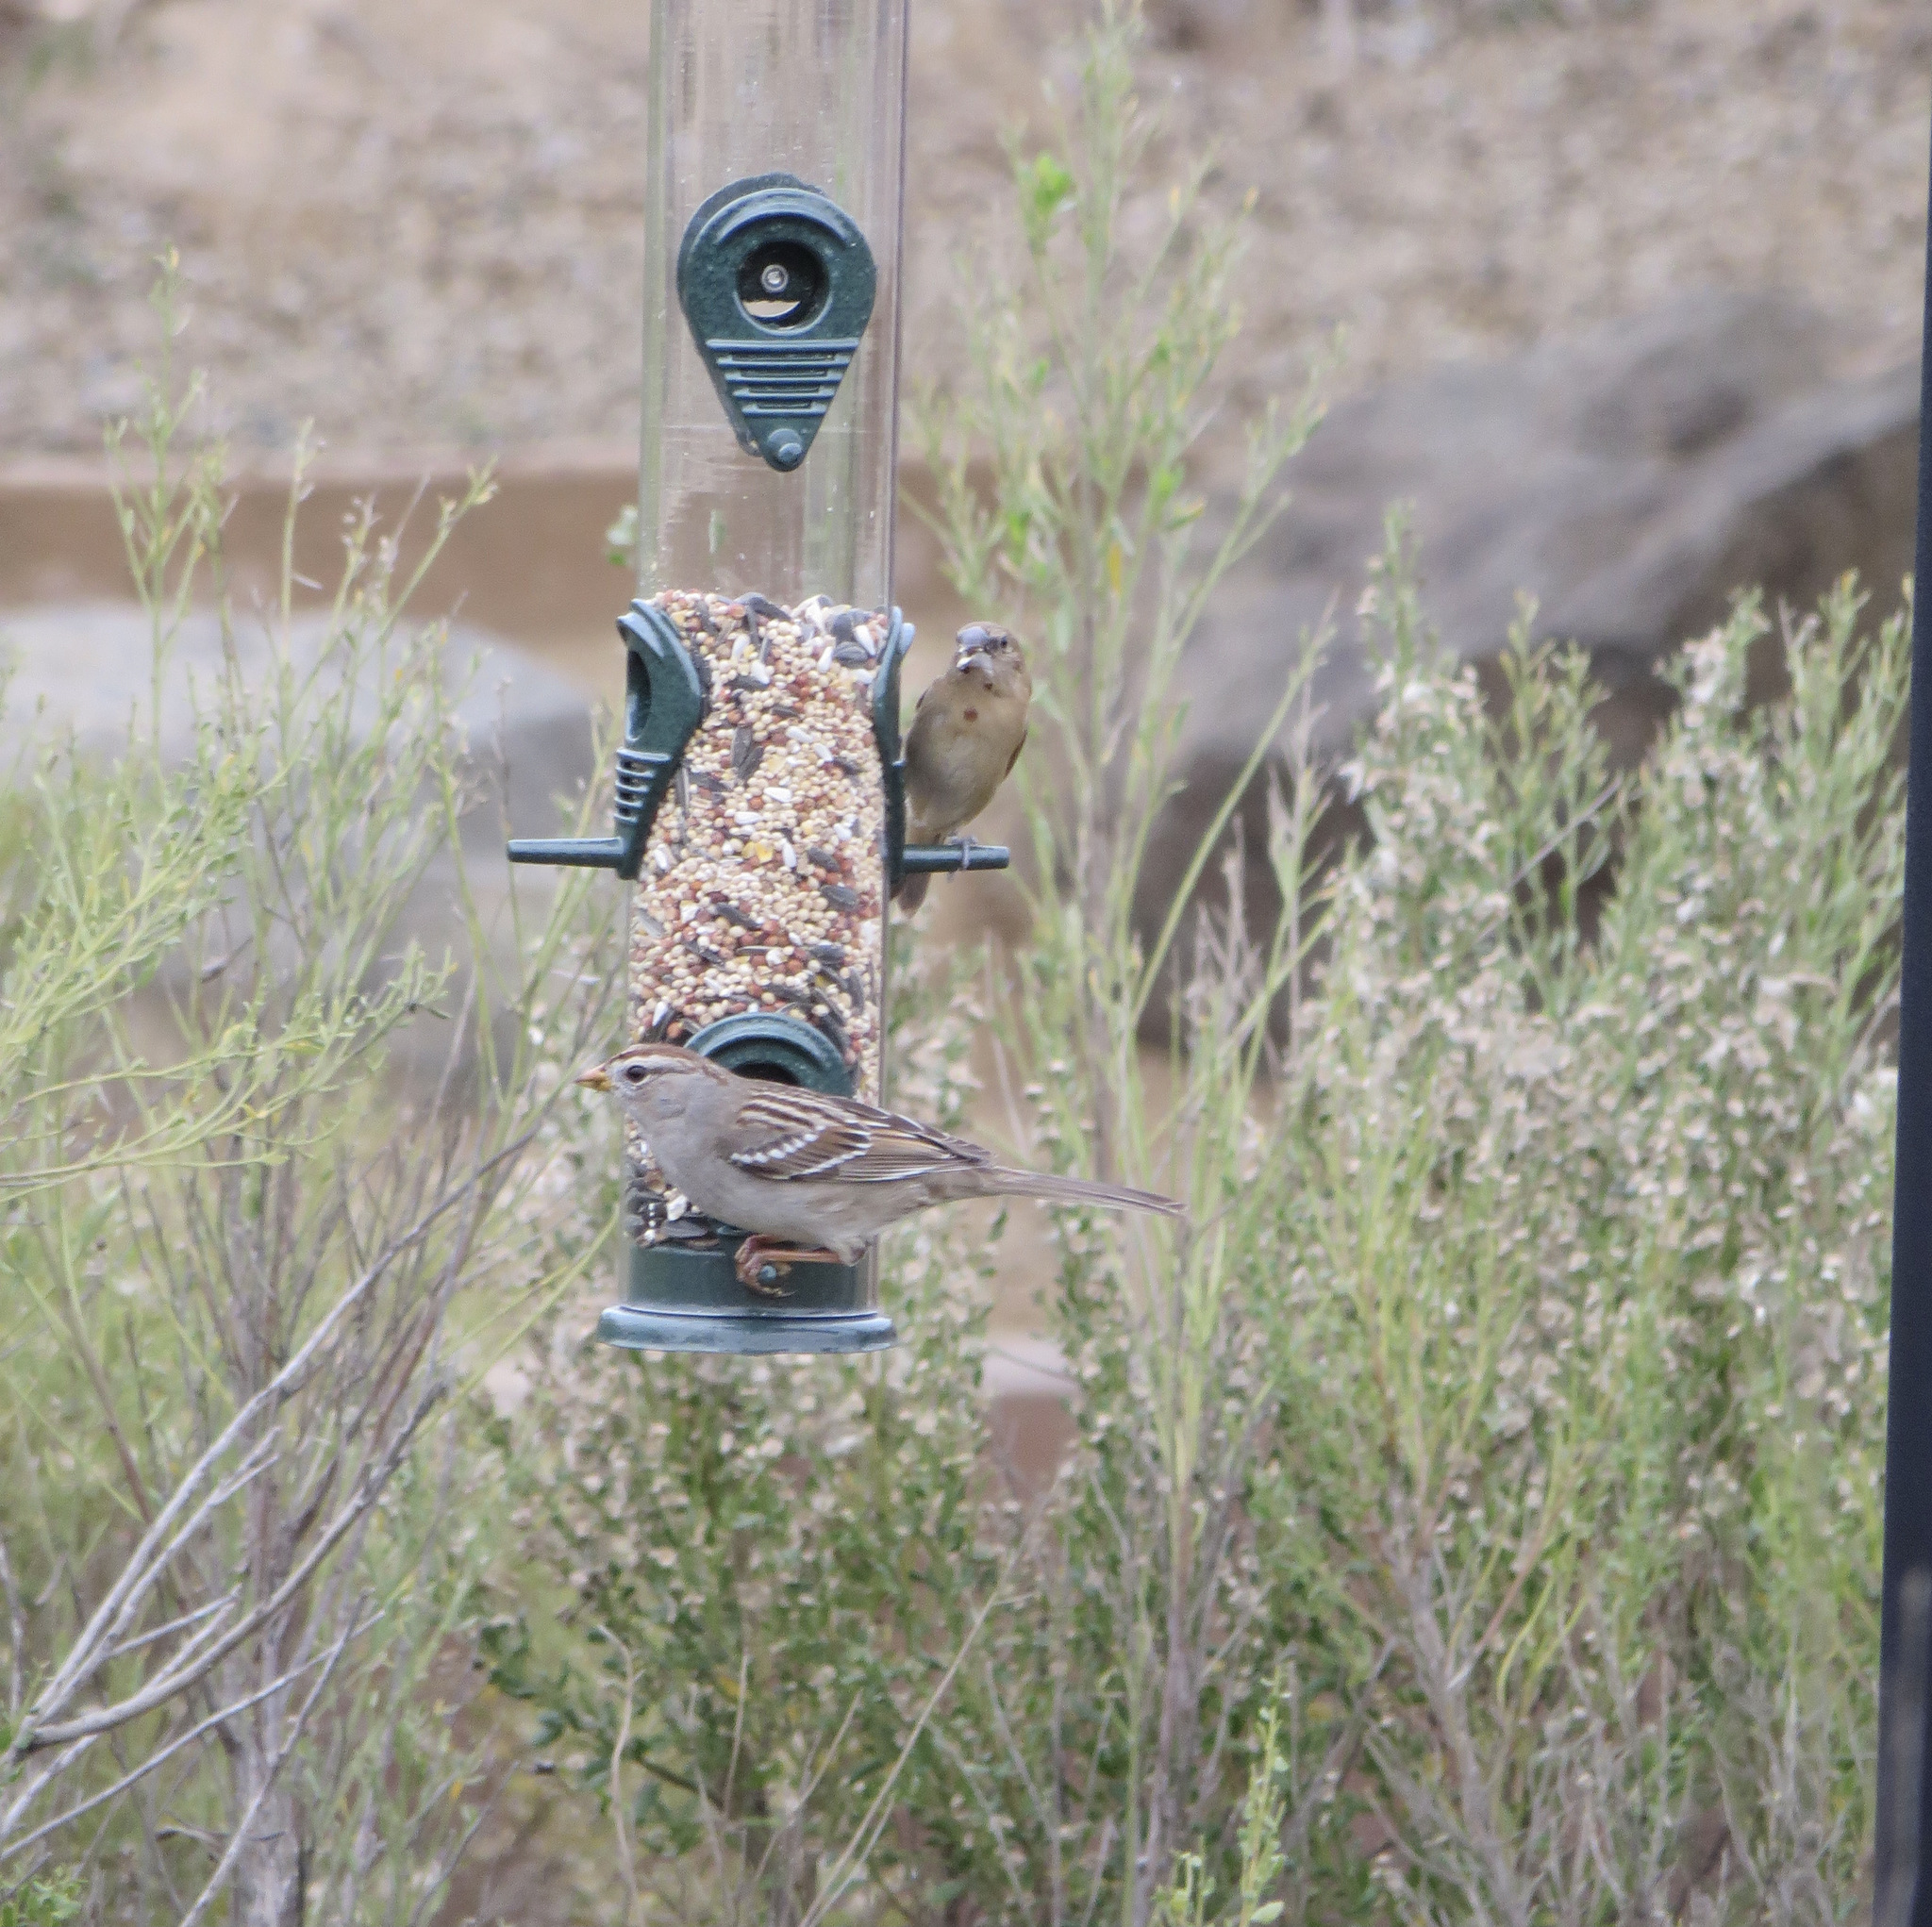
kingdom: Animalia
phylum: Chordata
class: Aves
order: Passeriformes
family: Passerellidae
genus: Zonotrichia
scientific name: Zonotrichia leucophrys
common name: White-crowned sparrow
